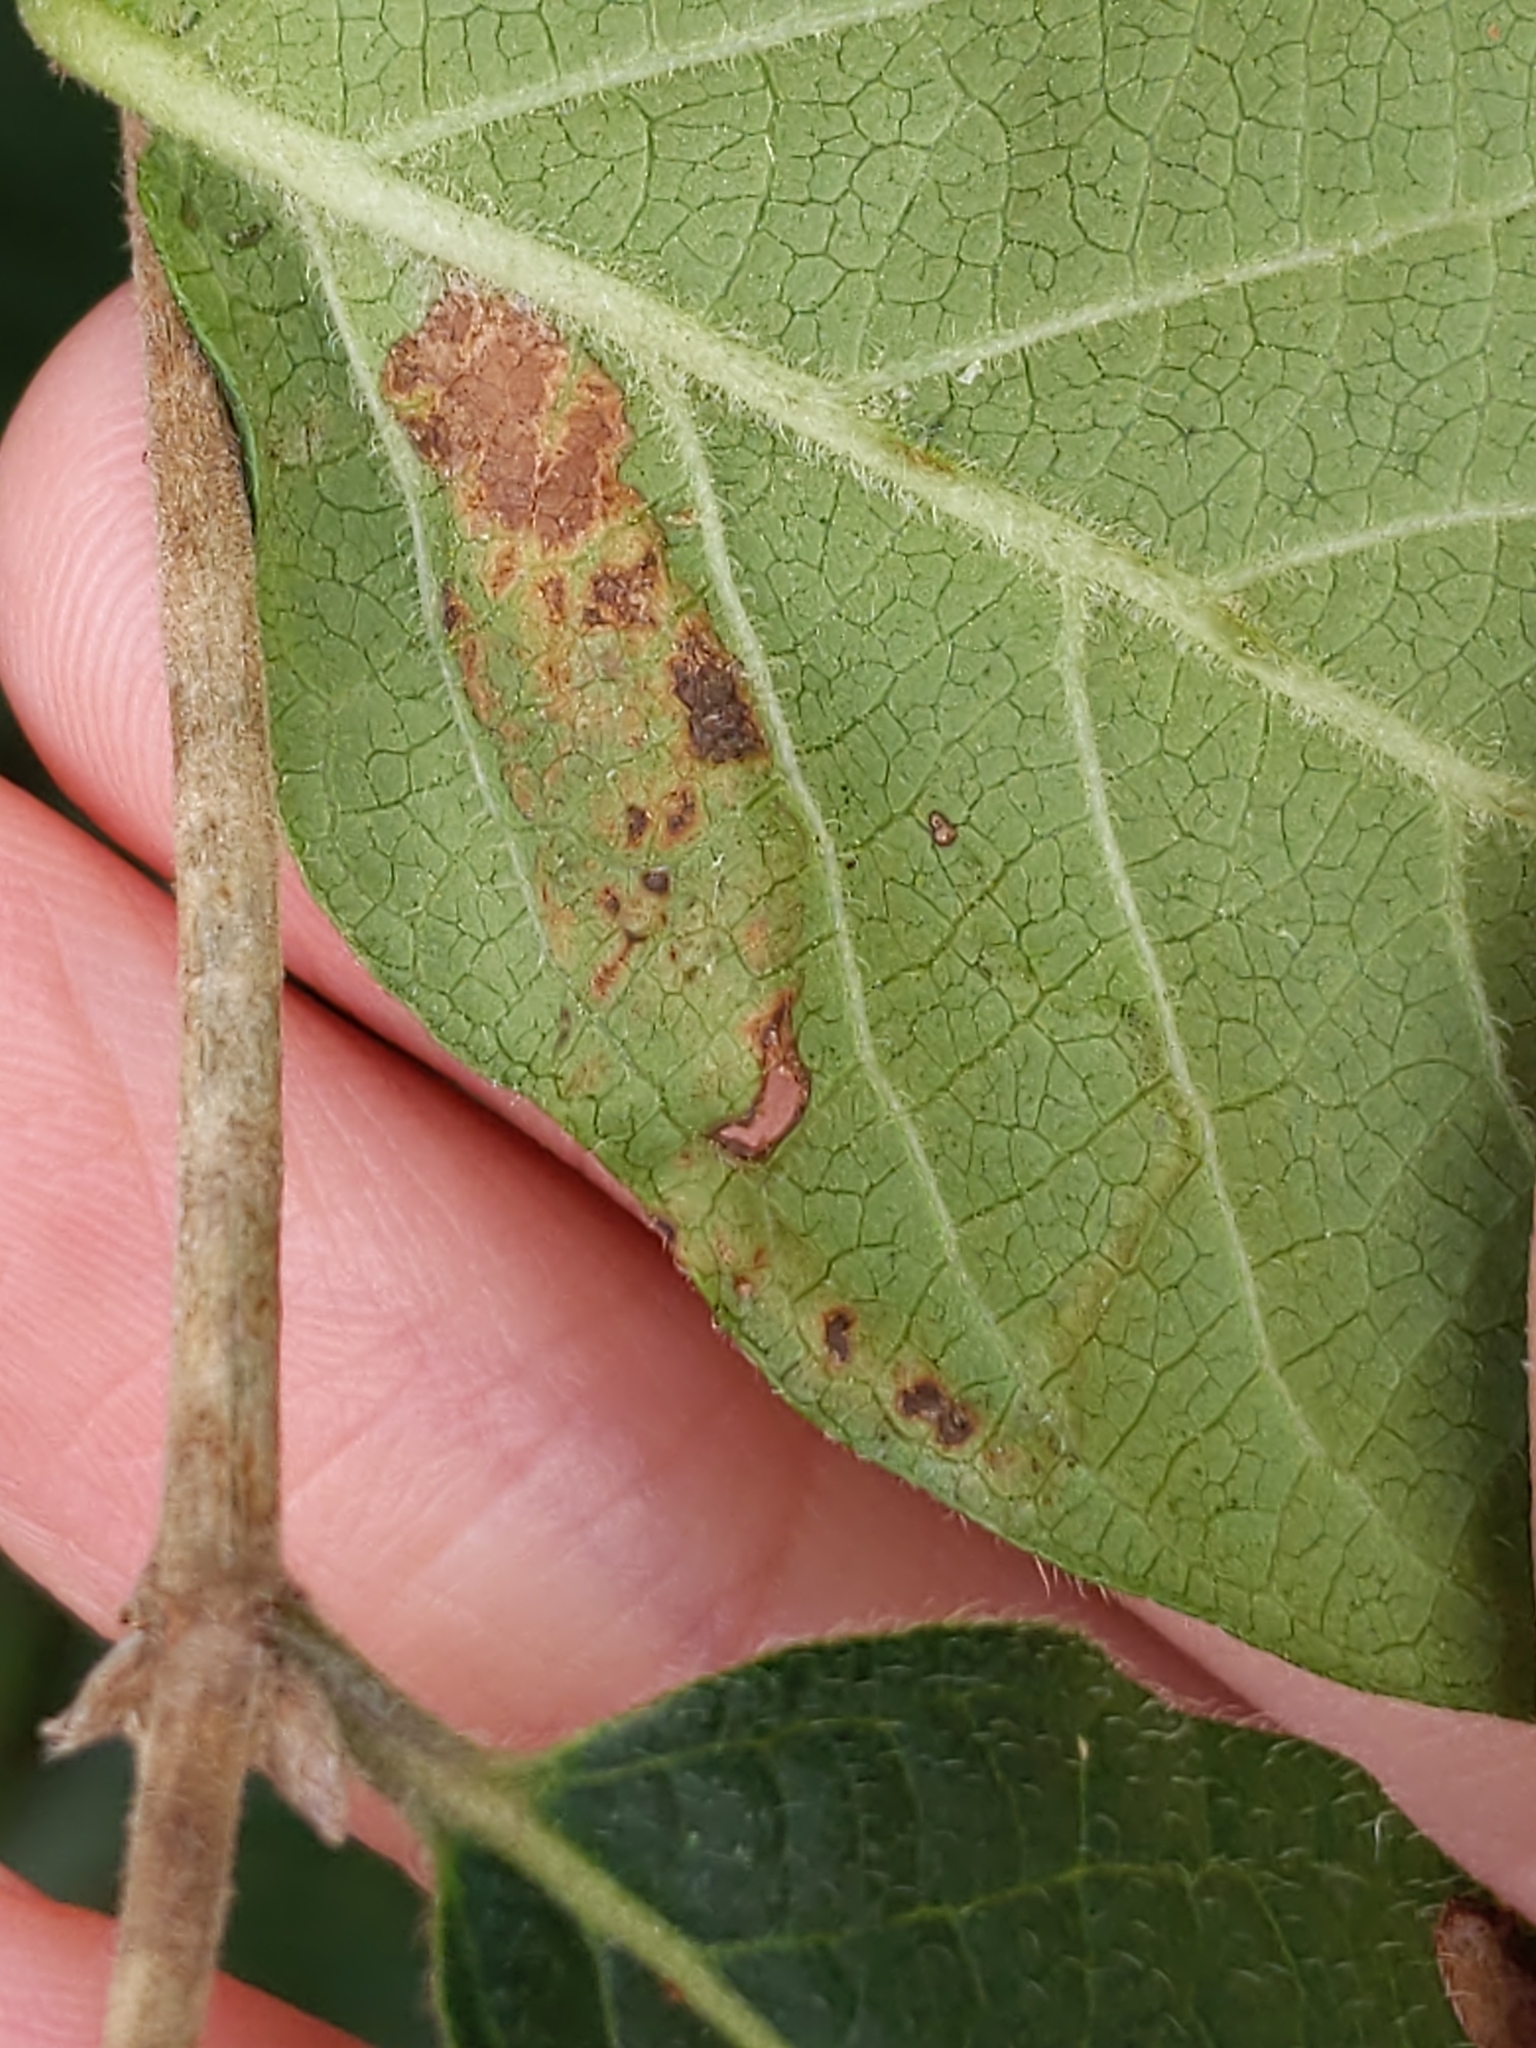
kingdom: Animalia
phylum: Arthropoda
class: Insecta
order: Diptera
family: Agromyzidae
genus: Aulagromyza
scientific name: Aulagromyza
